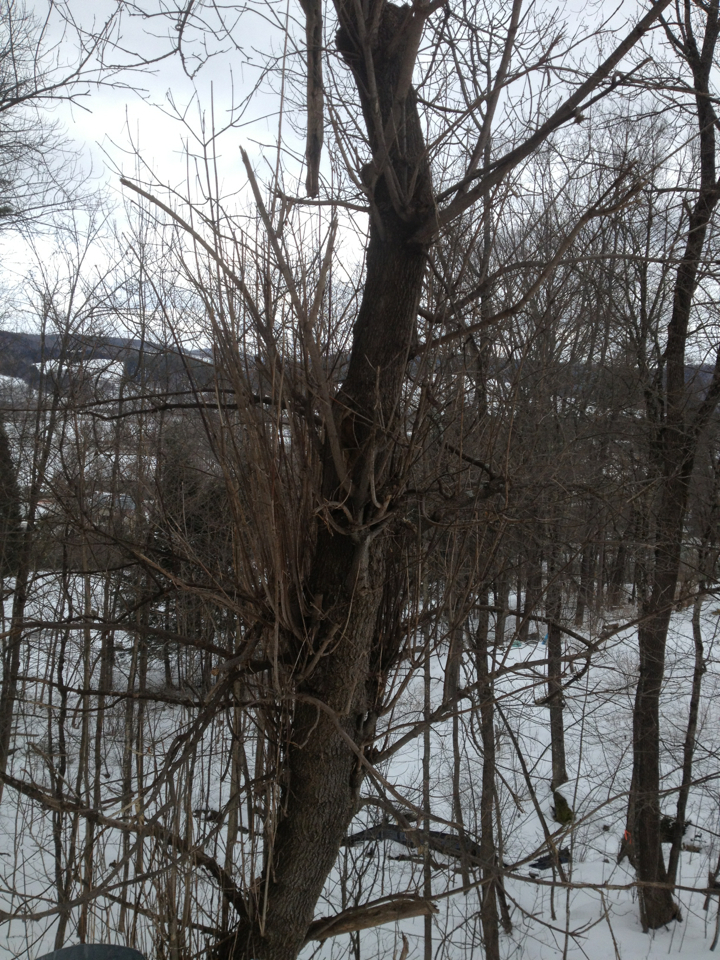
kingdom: Plantae
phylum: Tracheophyta
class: Magnoliopsida
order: Sapindales
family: Sapindaceae
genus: Acer
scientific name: Acer negundo
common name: Ashleaf maple
